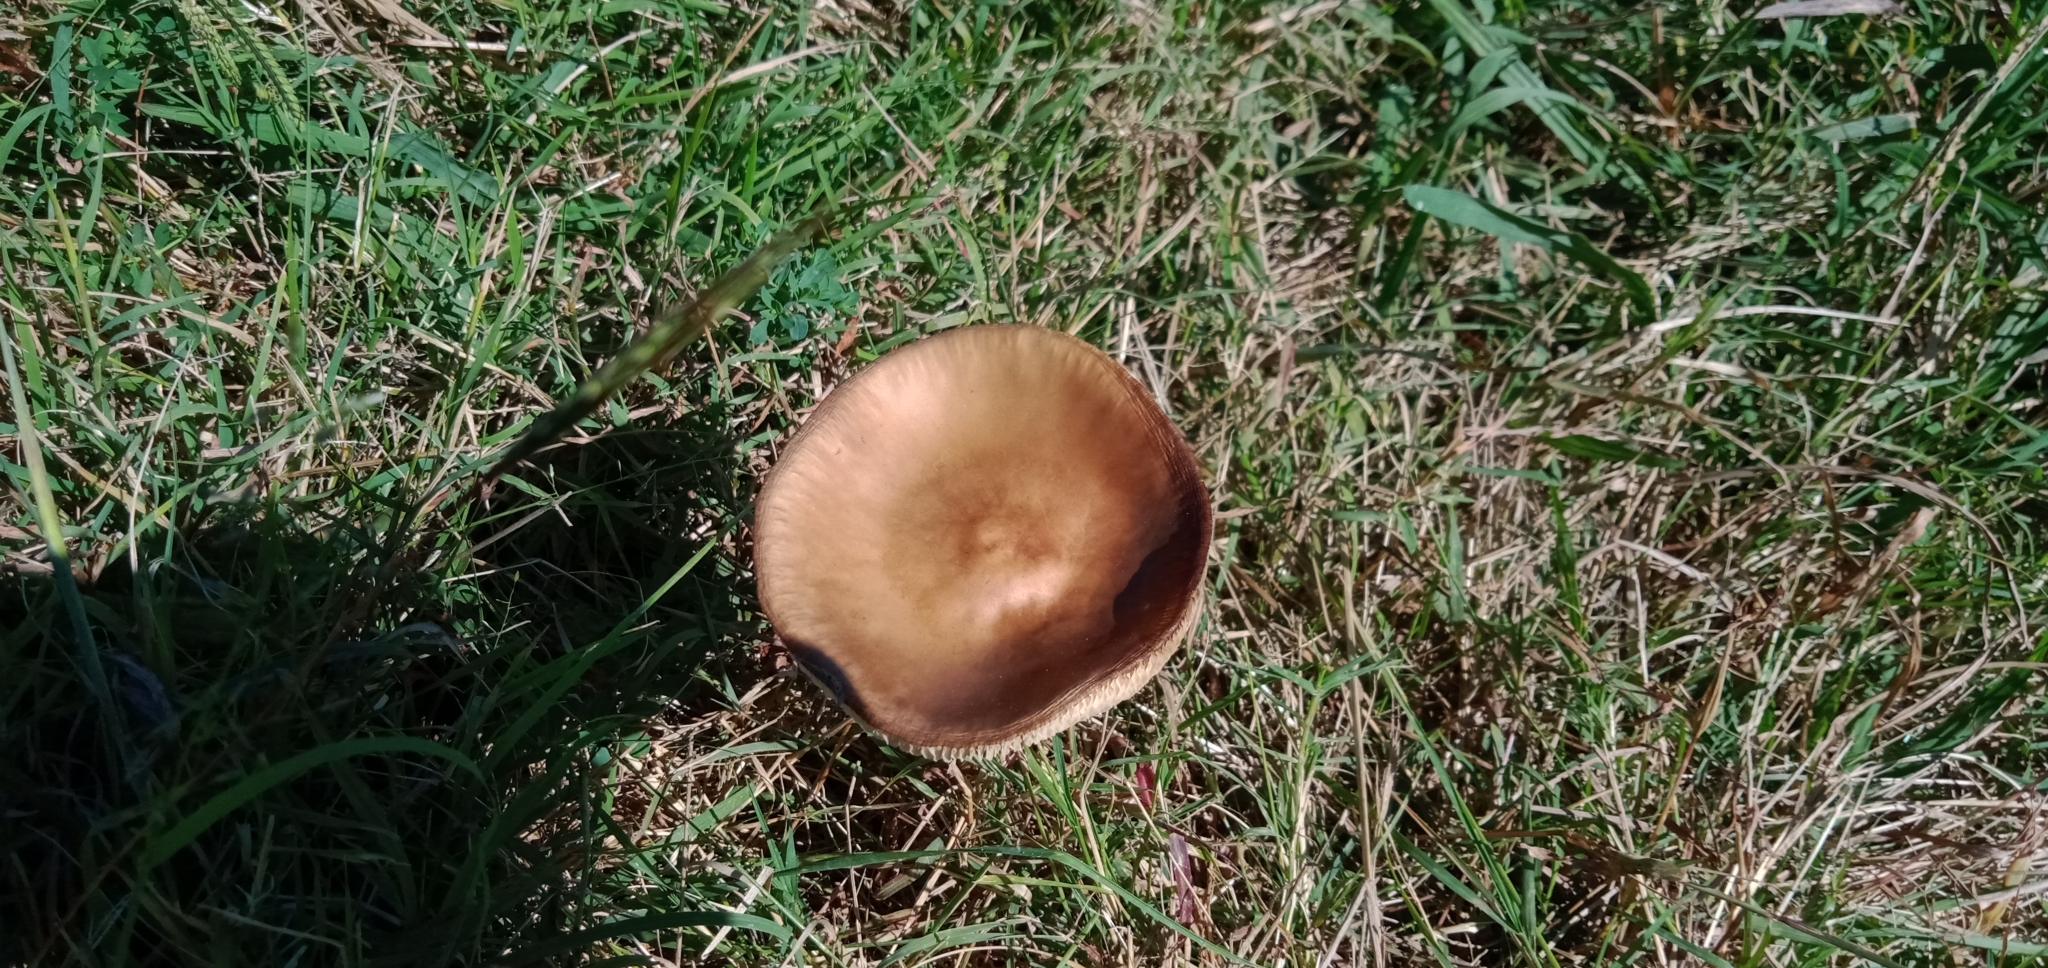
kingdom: Fungi
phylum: Basidiomycota
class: Agaricomycetes
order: Agaricales
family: Physalacriaceae
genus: Hymenopellis
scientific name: Hymenopellis gigaspora
